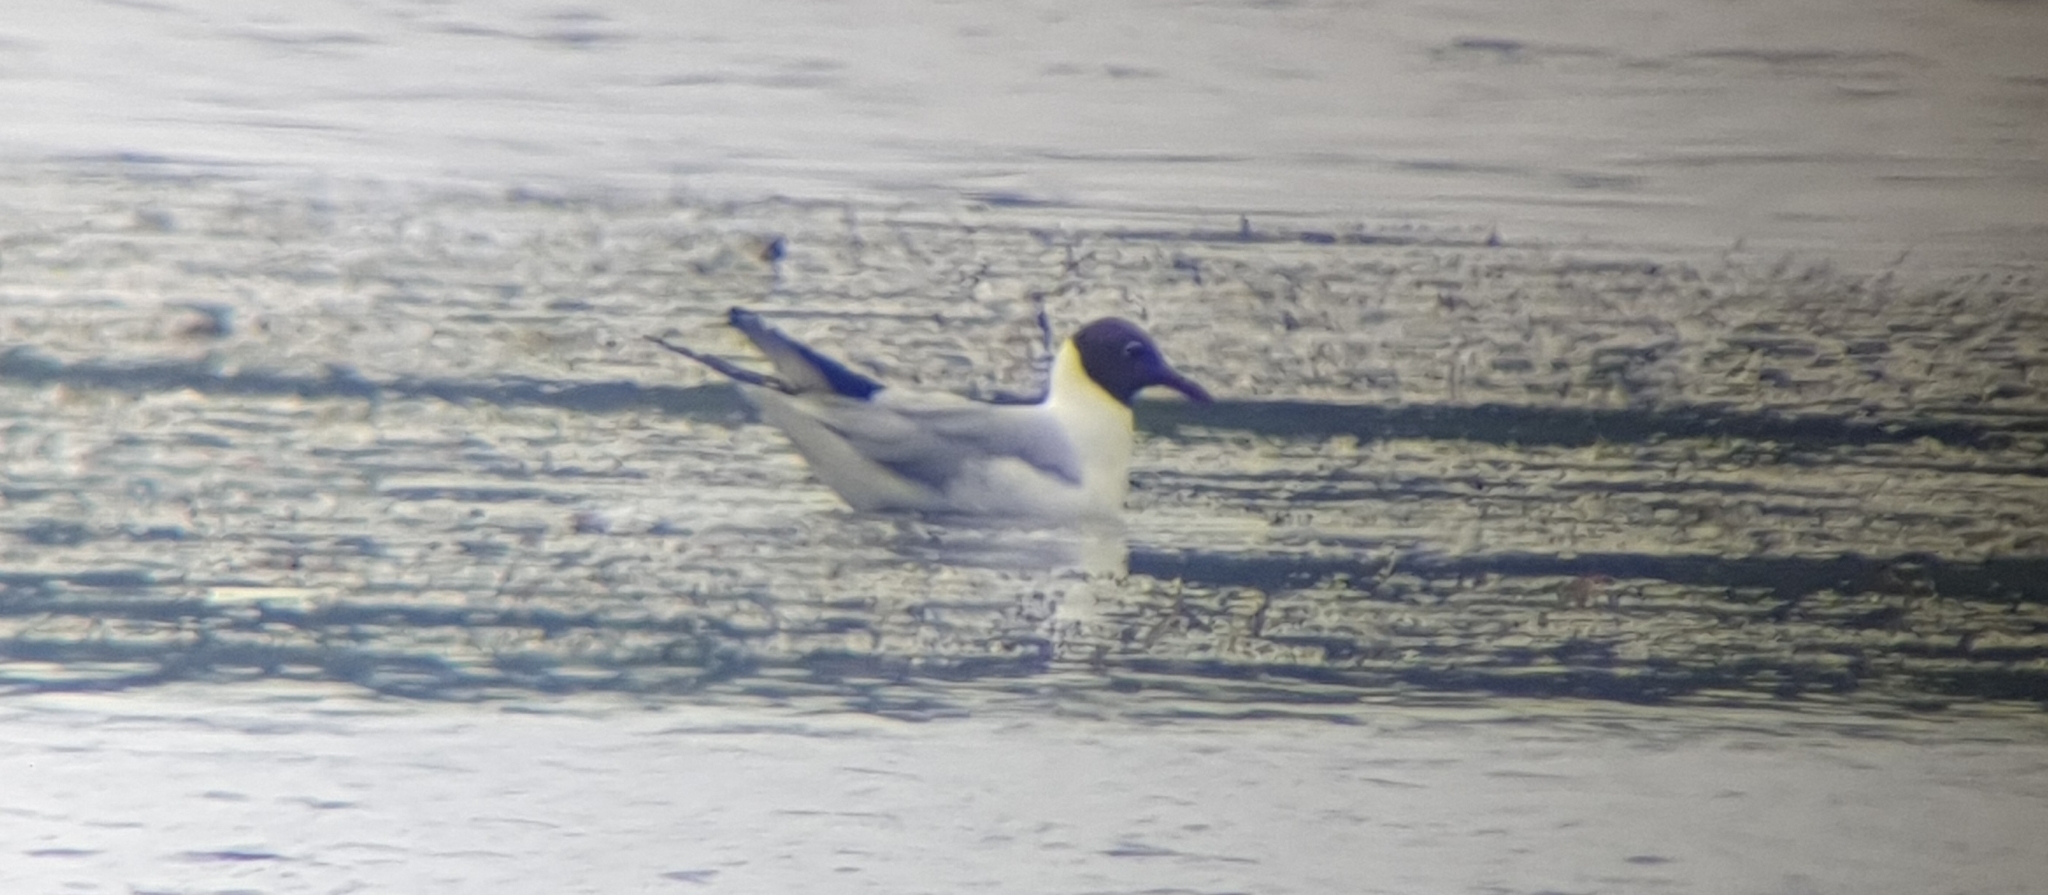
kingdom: Animalia
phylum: Chordata
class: Aves
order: Charadriiformes
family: Laridae
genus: Chroicocephalus
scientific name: Chroicocephalus ridibundus
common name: Black-headed gull
